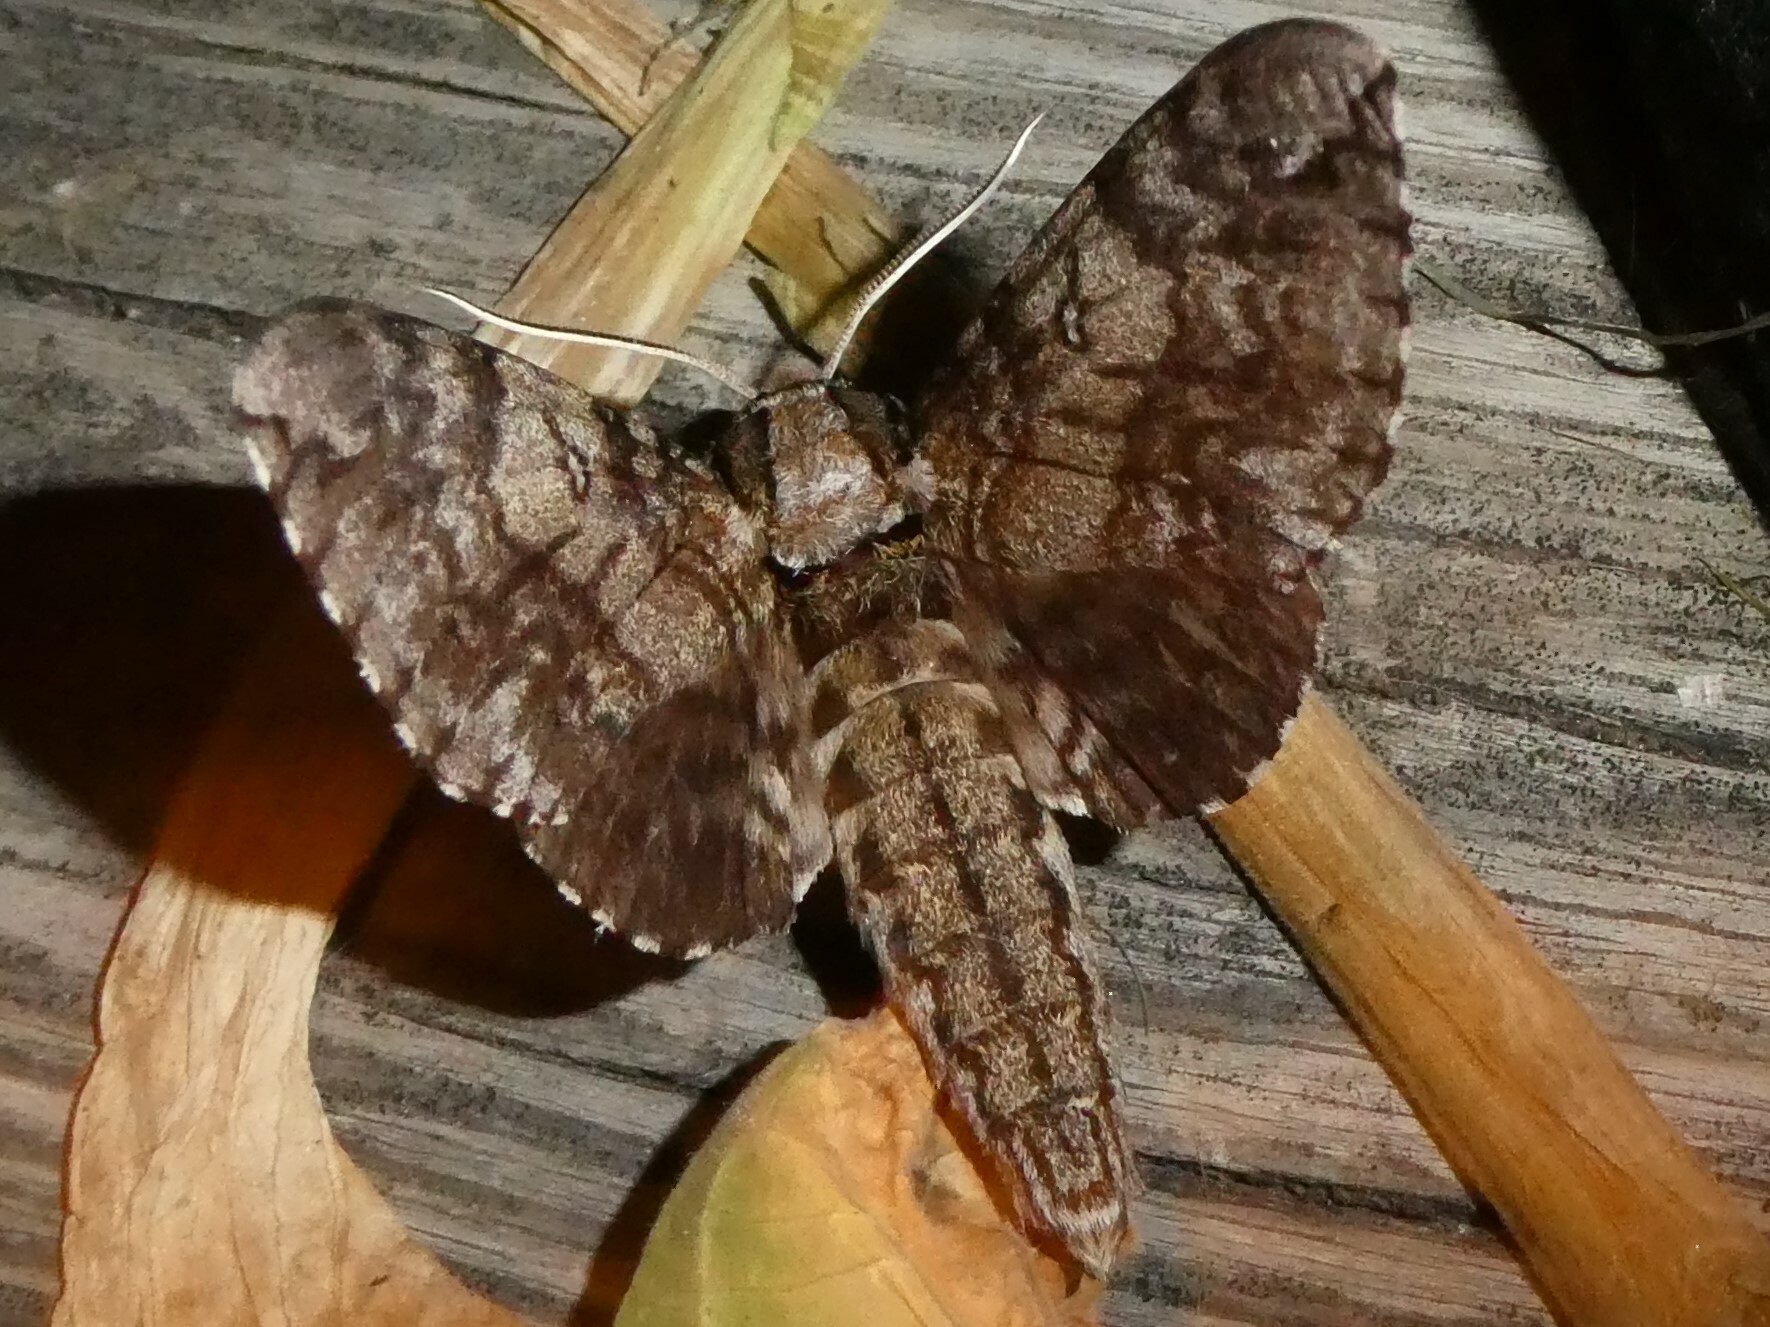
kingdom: Animalia
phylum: Arthropoda
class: Insecta
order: Lepidoptera
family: Sphingidae
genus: Ceratomia
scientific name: Ceratomia undulosa
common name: Waved sphinx
